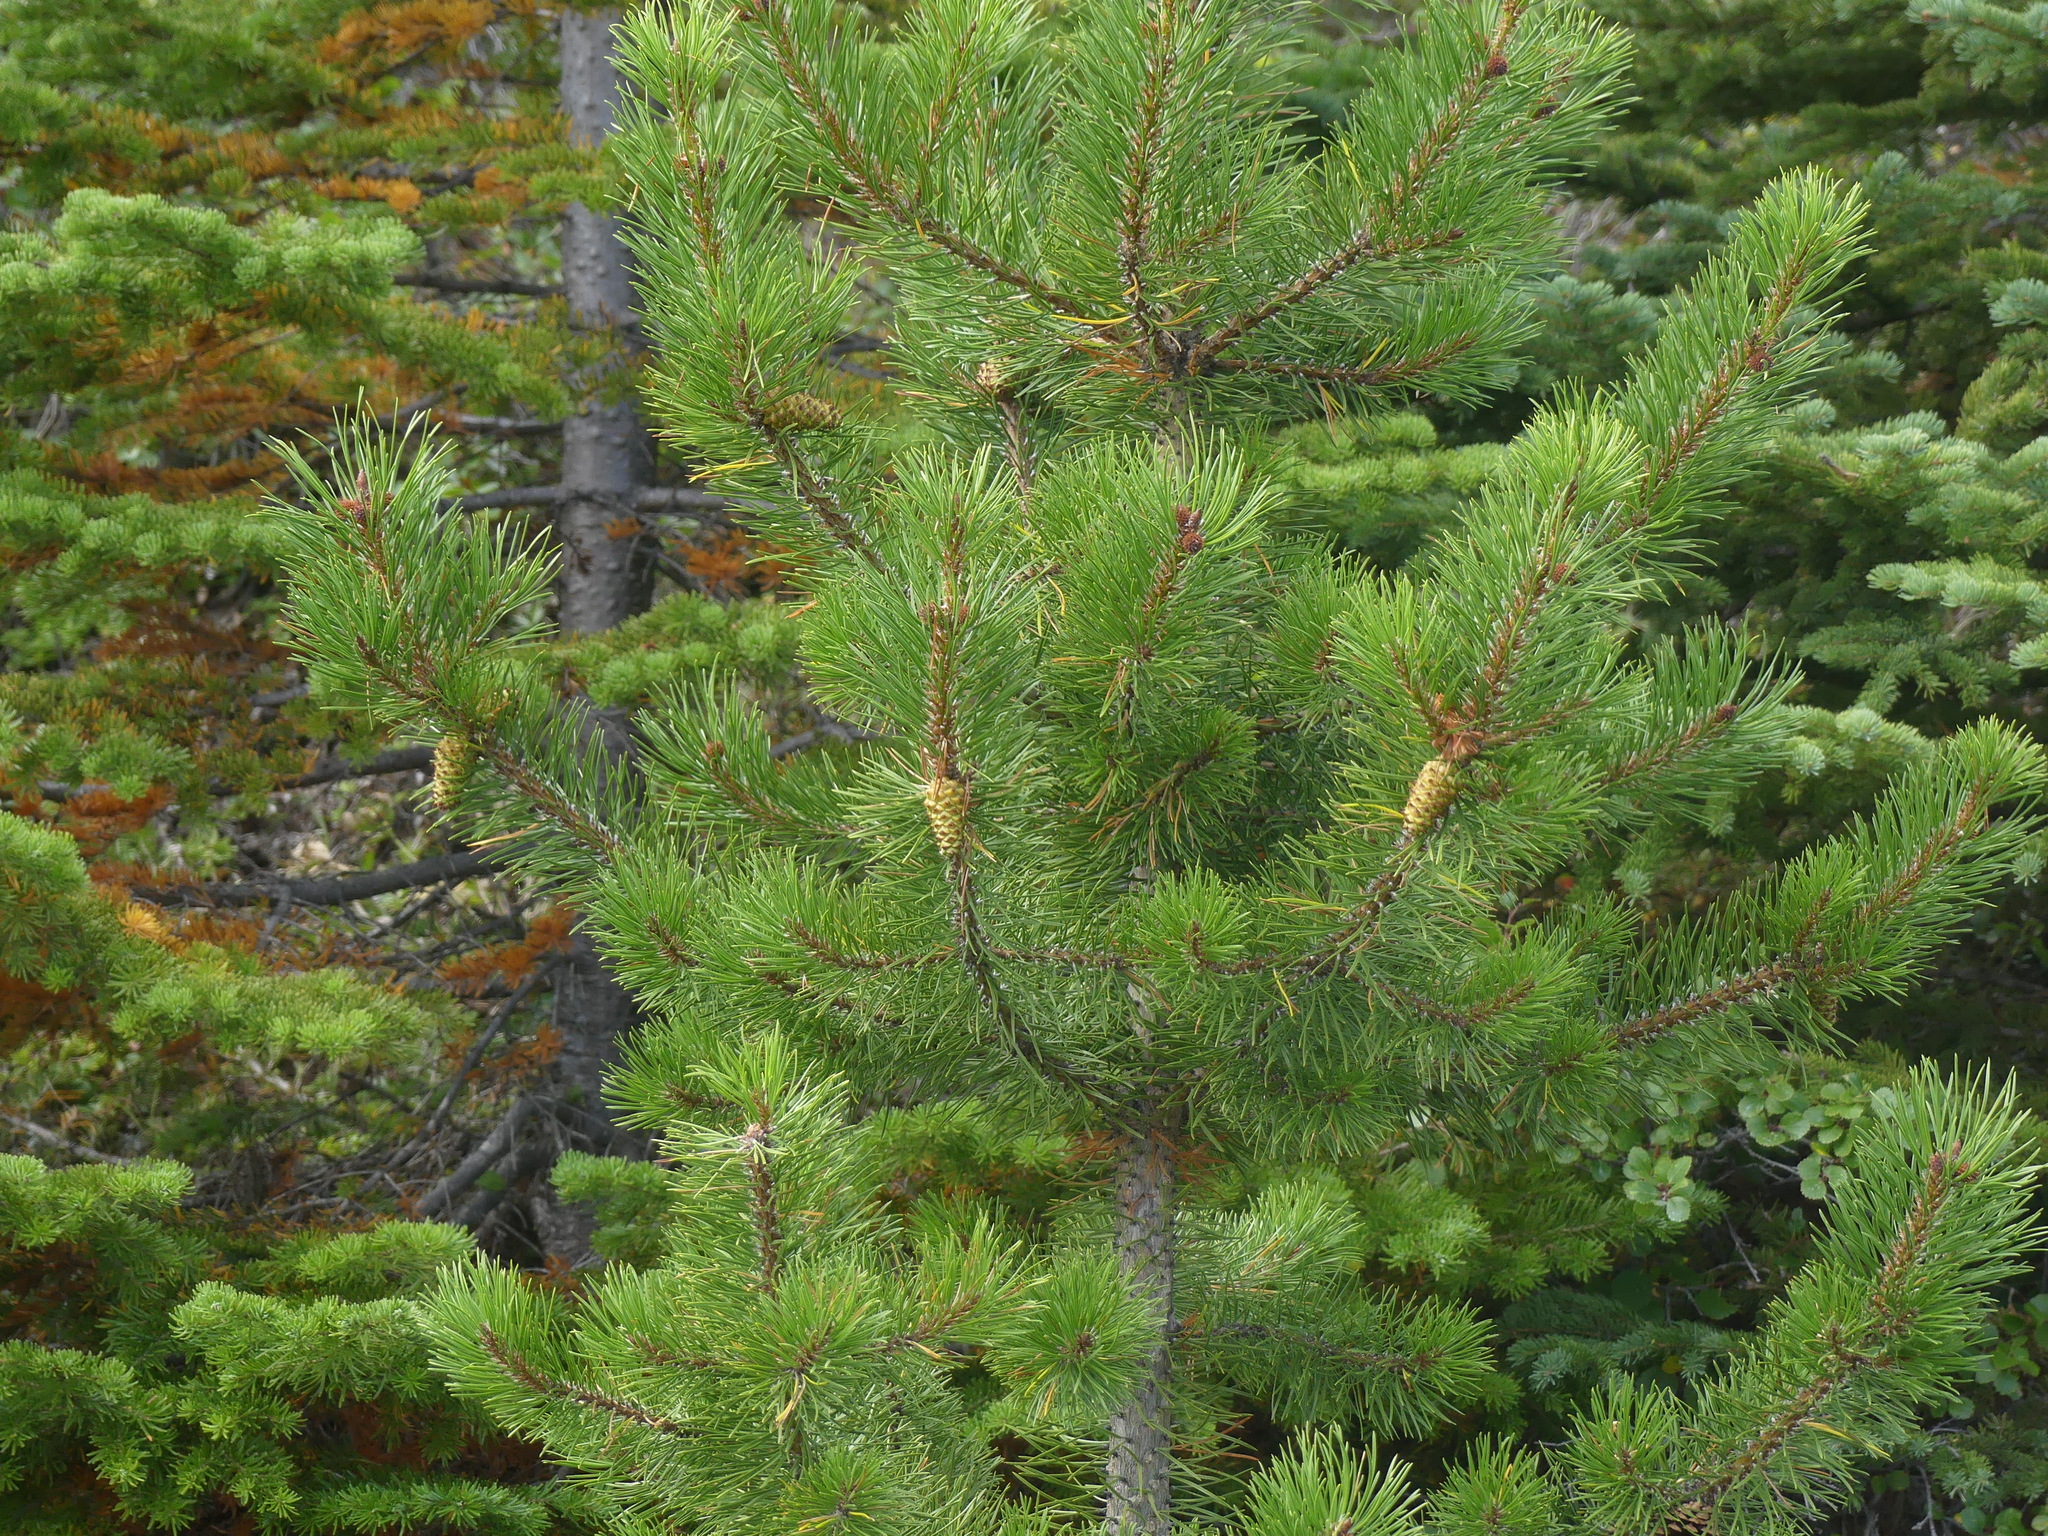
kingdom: Plantae
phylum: Tracheophyta
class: Pinopsida
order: Pinales
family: Pinaceae
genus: Pinus
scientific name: Pinus contorta
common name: Lodgepole pine
